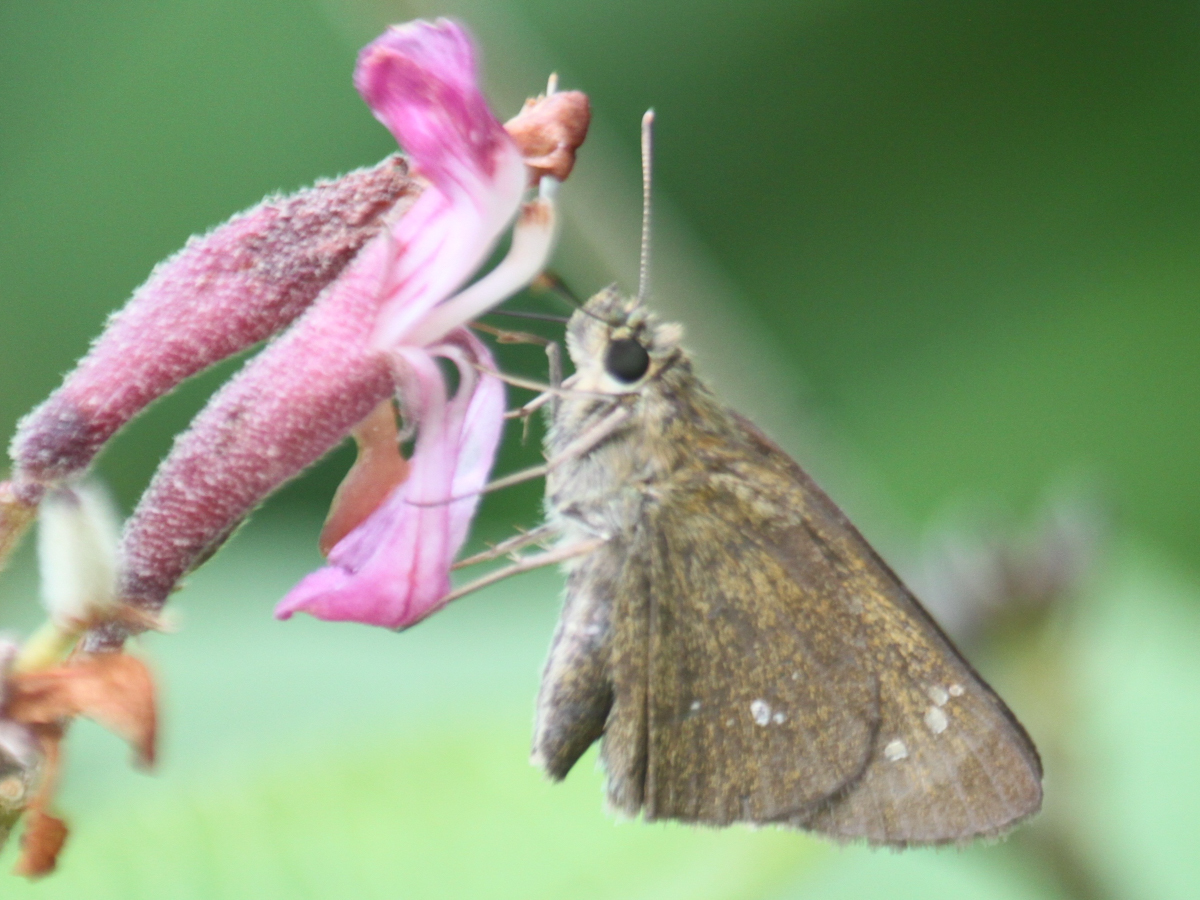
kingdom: Animalia
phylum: Arthropoda
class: Insecta
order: Lepidoptera
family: Hesperiidae
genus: Polytremis
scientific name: Polytremis lubricans
